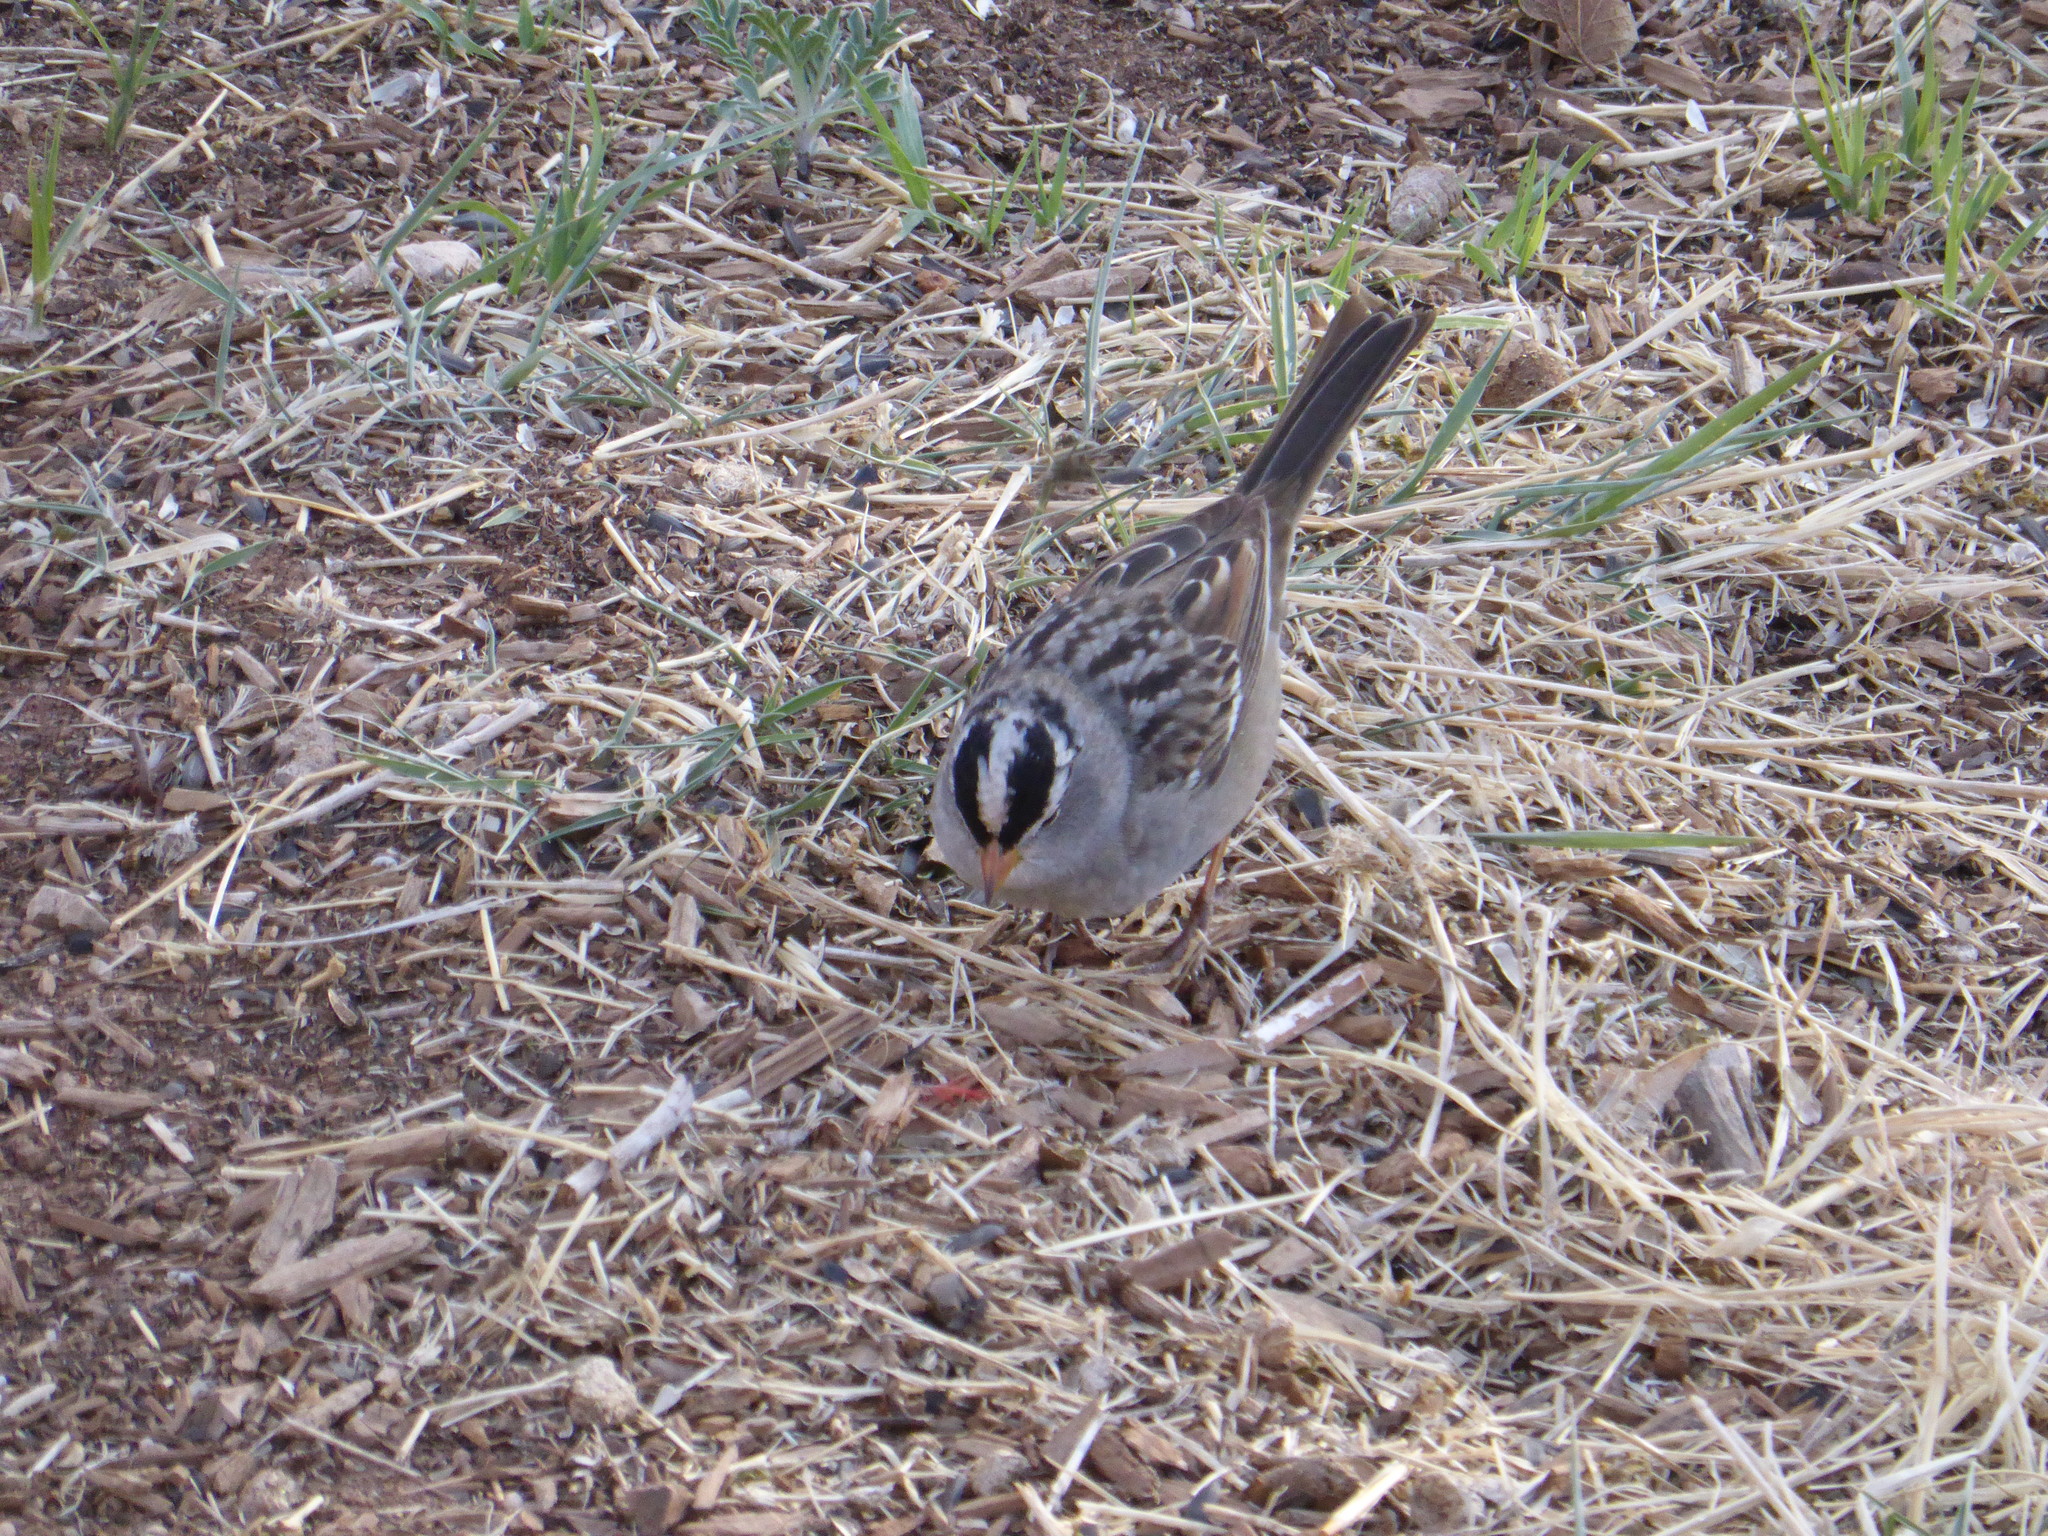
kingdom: Animalia
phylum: Chordata
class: Aves
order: Passeriformes
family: Passerellidae
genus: Zonotrichia
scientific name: Zonotrichia leucophrys
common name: White-crowned sparrow
